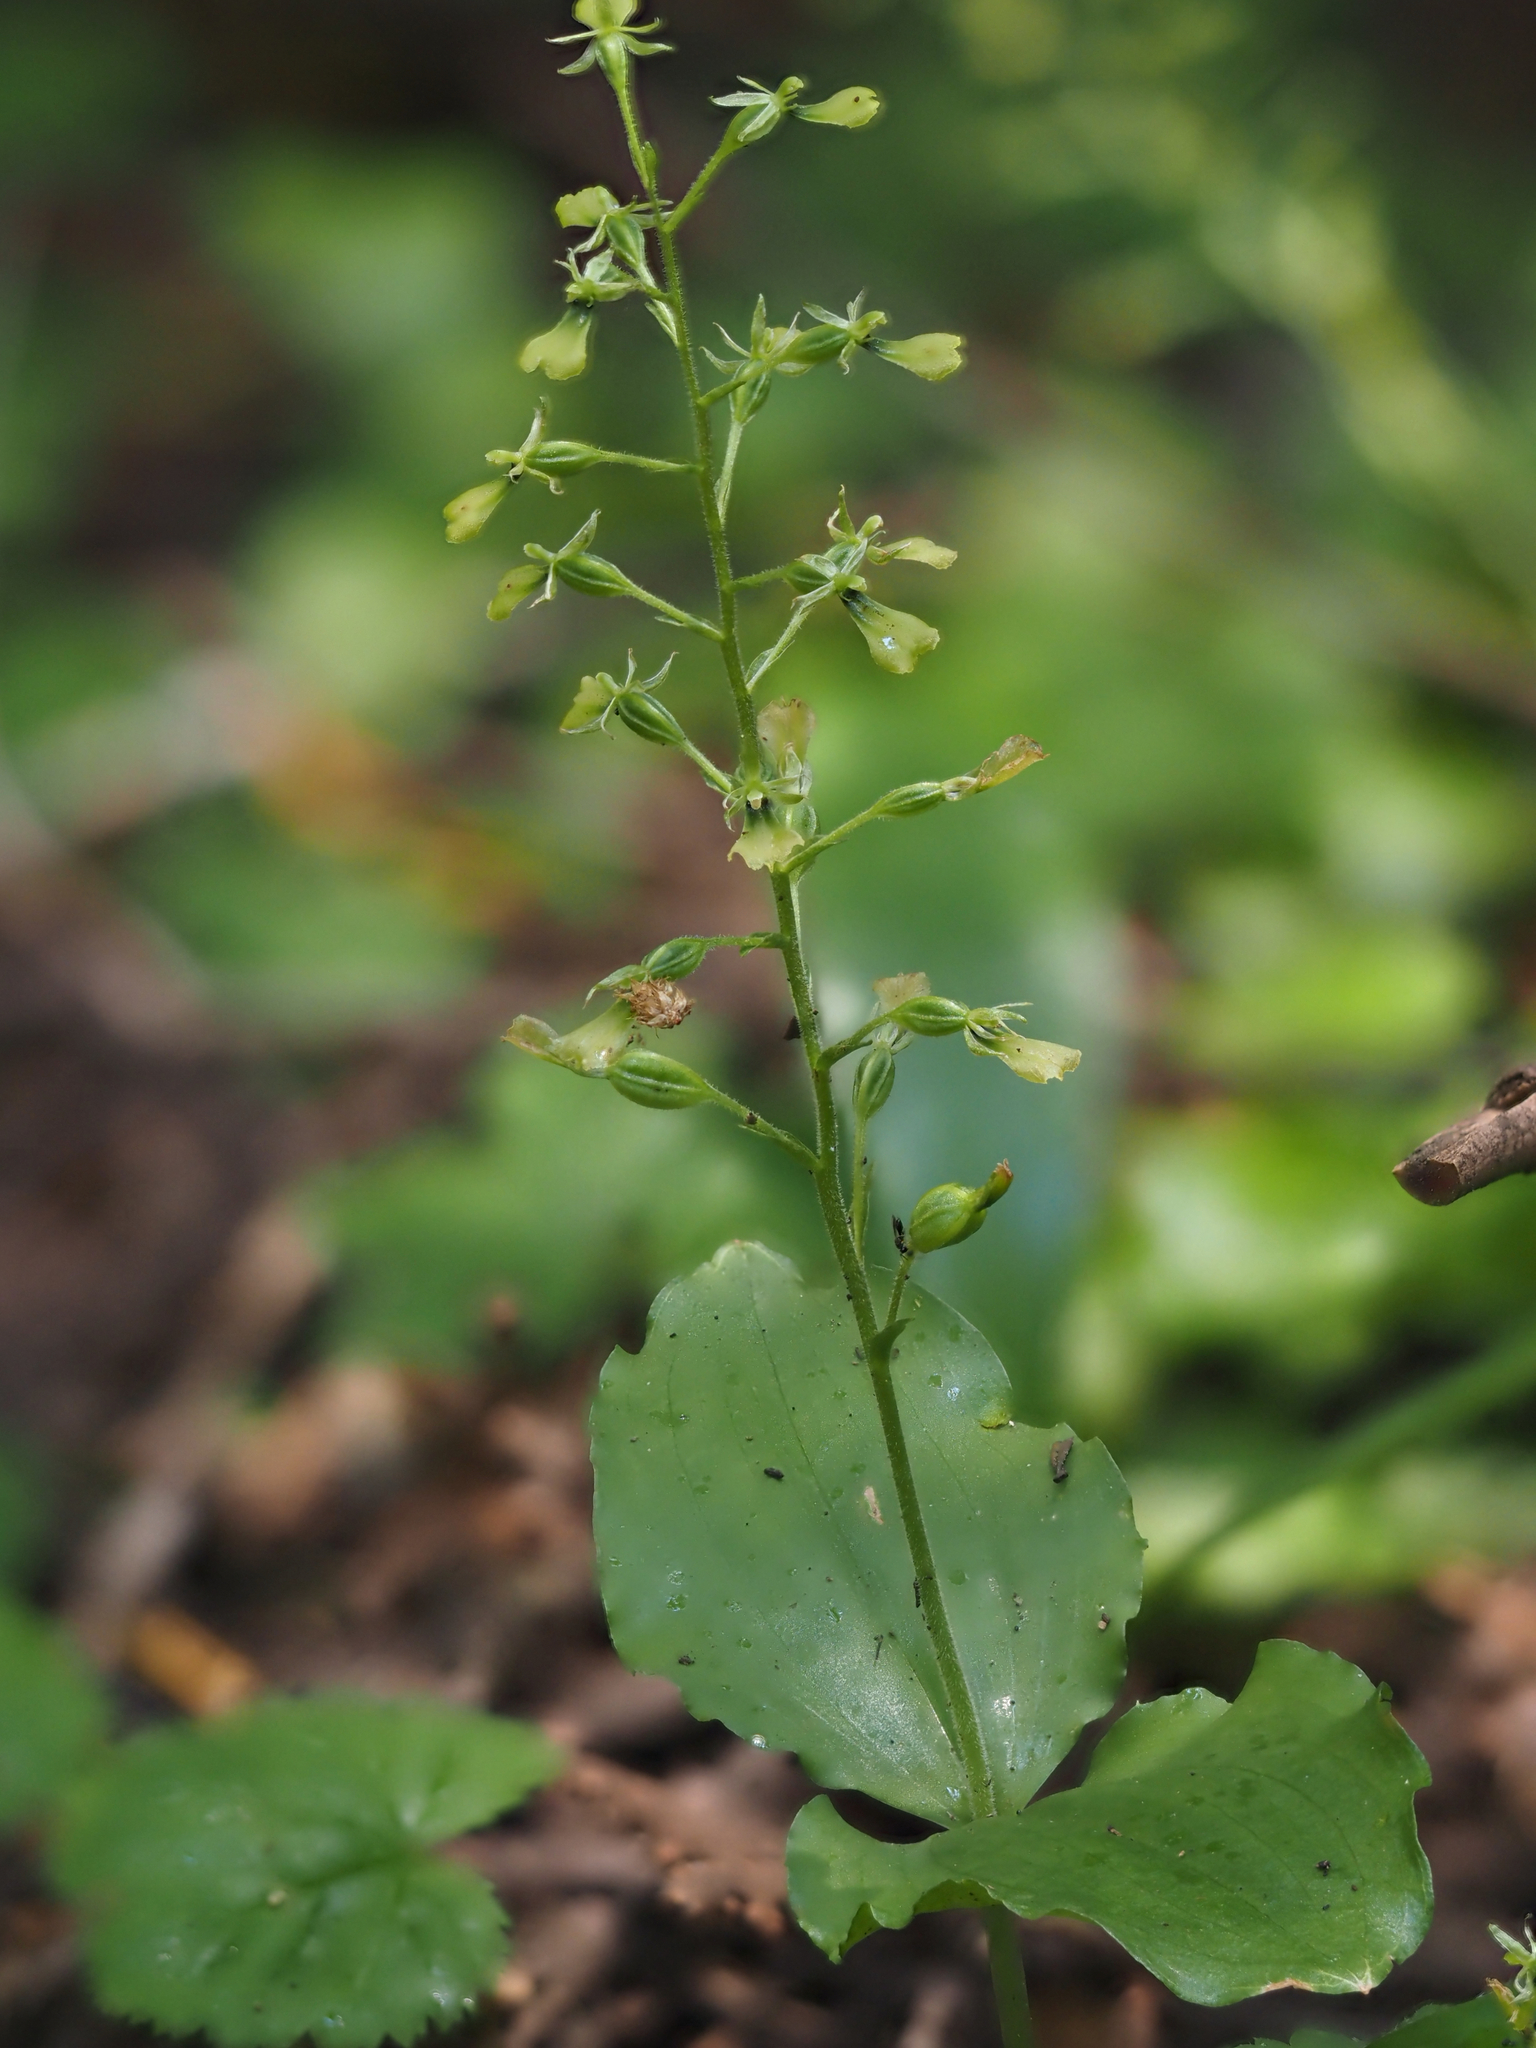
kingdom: Plantae
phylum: Tracheophyta
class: Liliopsida
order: Asparagales
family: Orchidaceae
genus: Neottia
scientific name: Neottia banksiana
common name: Northwestern twayblade
